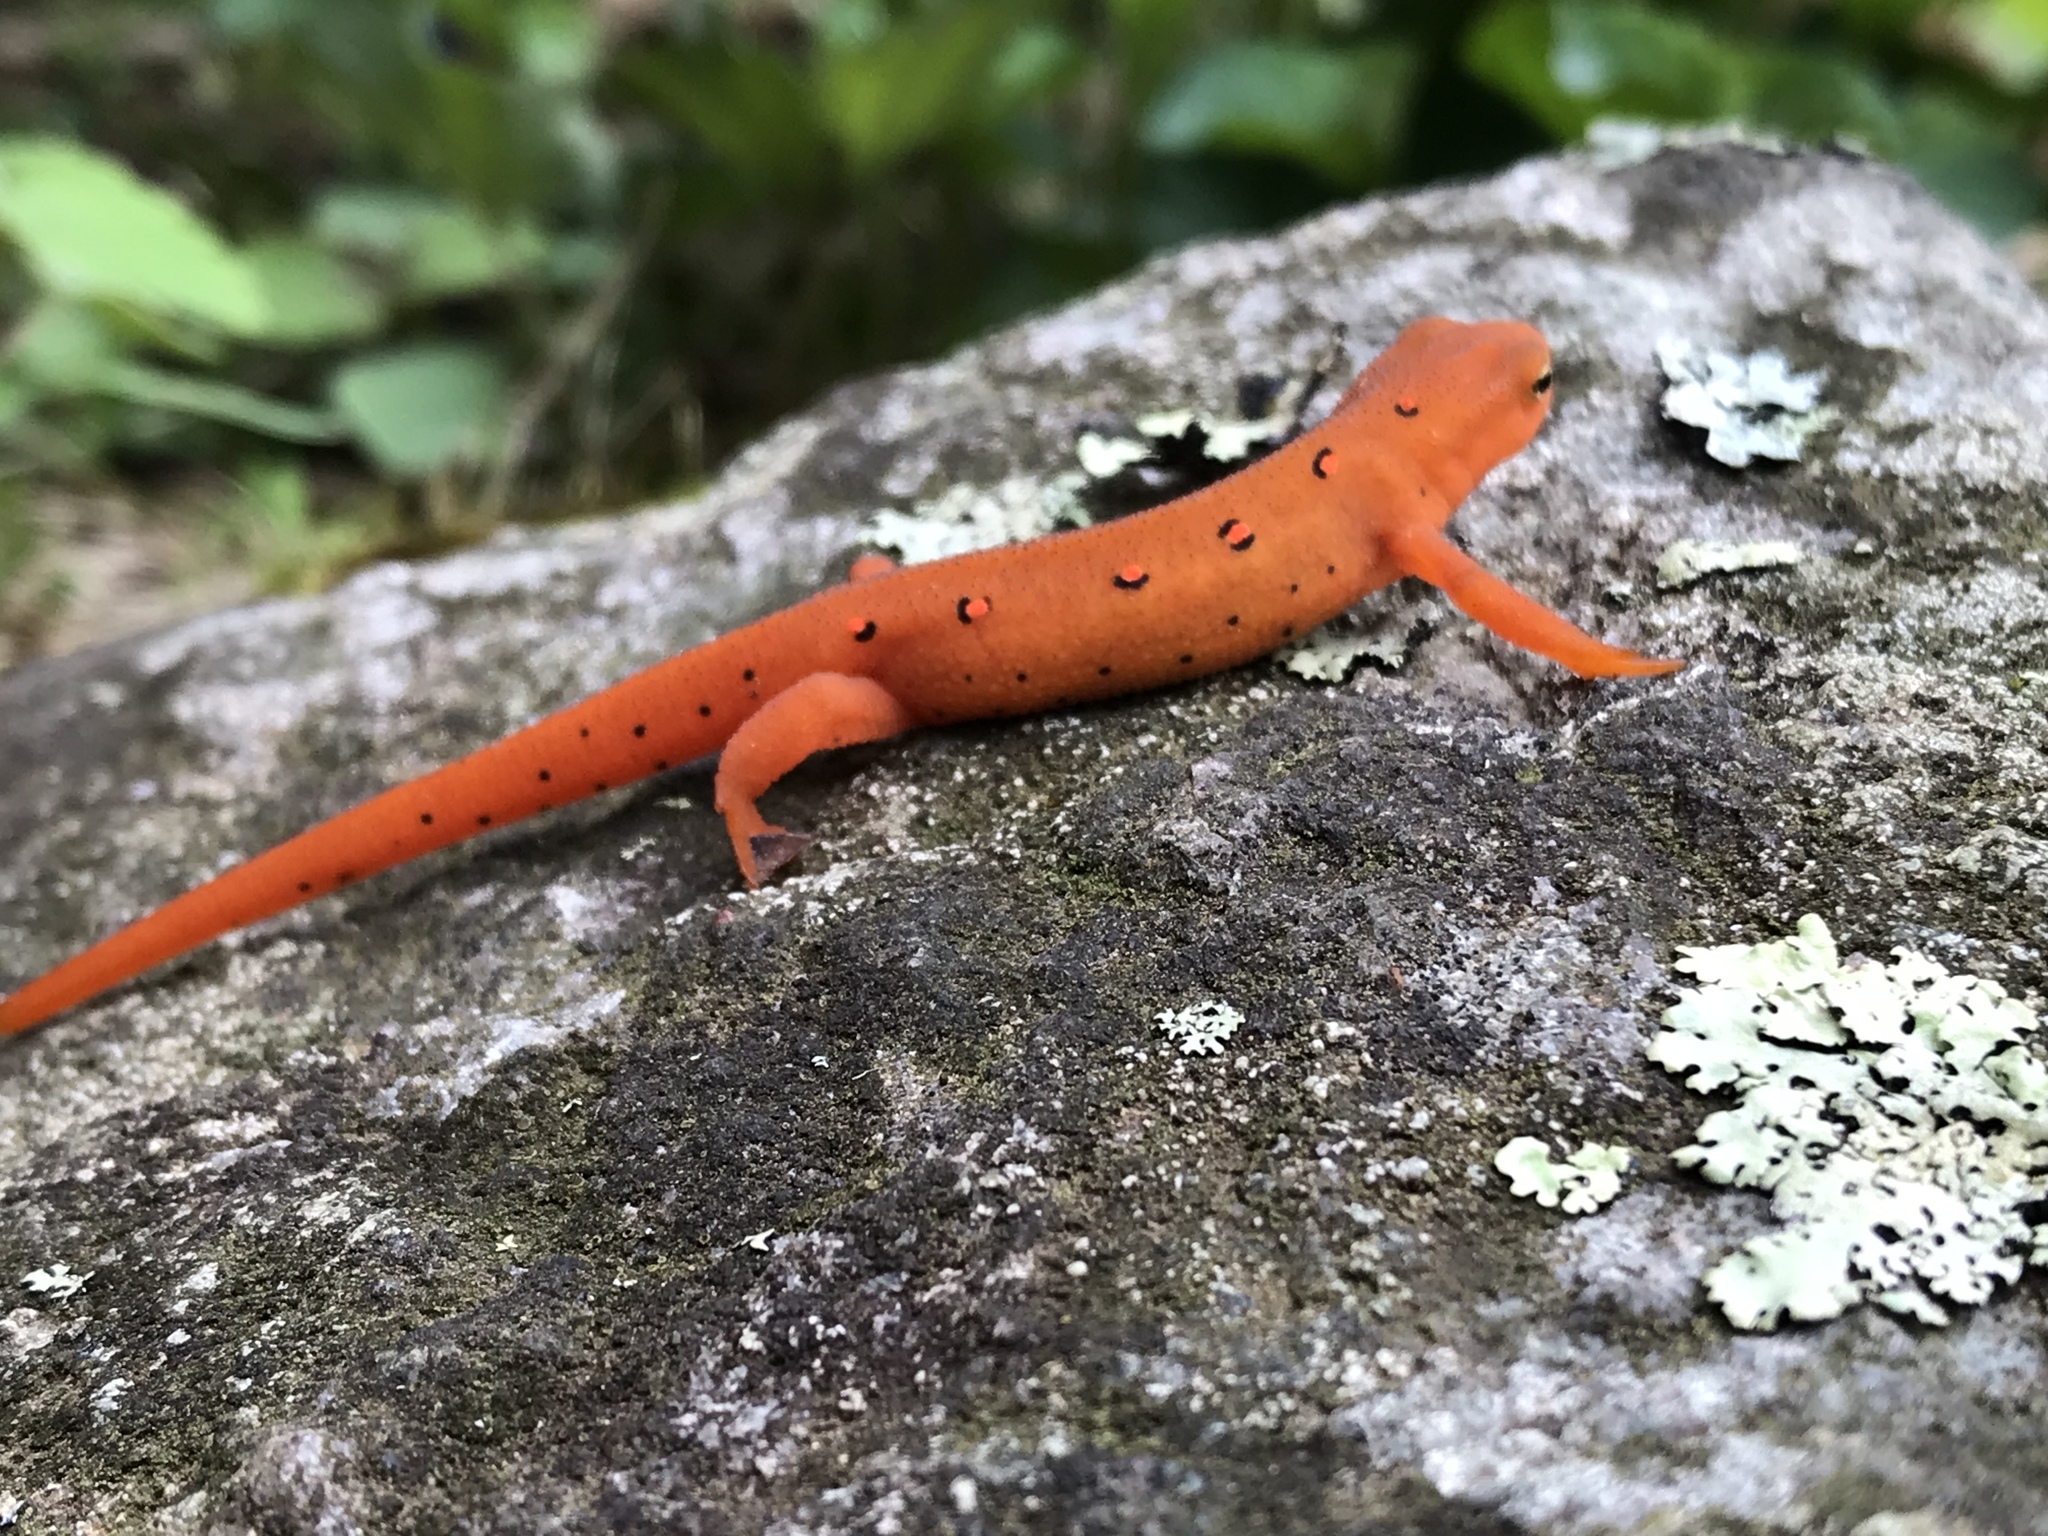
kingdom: Animalia
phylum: Chordata
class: Amphibia
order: Caudata
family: Salamandridae
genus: Notophthalmus
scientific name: Notophthalmus viridescens
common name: Eastern newt
